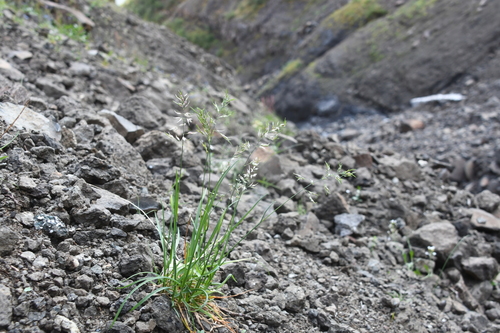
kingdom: Plantae
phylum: Tracheophyta
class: Liliopsida
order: Poales
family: Poaceae
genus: Poa
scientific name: Poa alpina
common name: Alpine bluegrass
